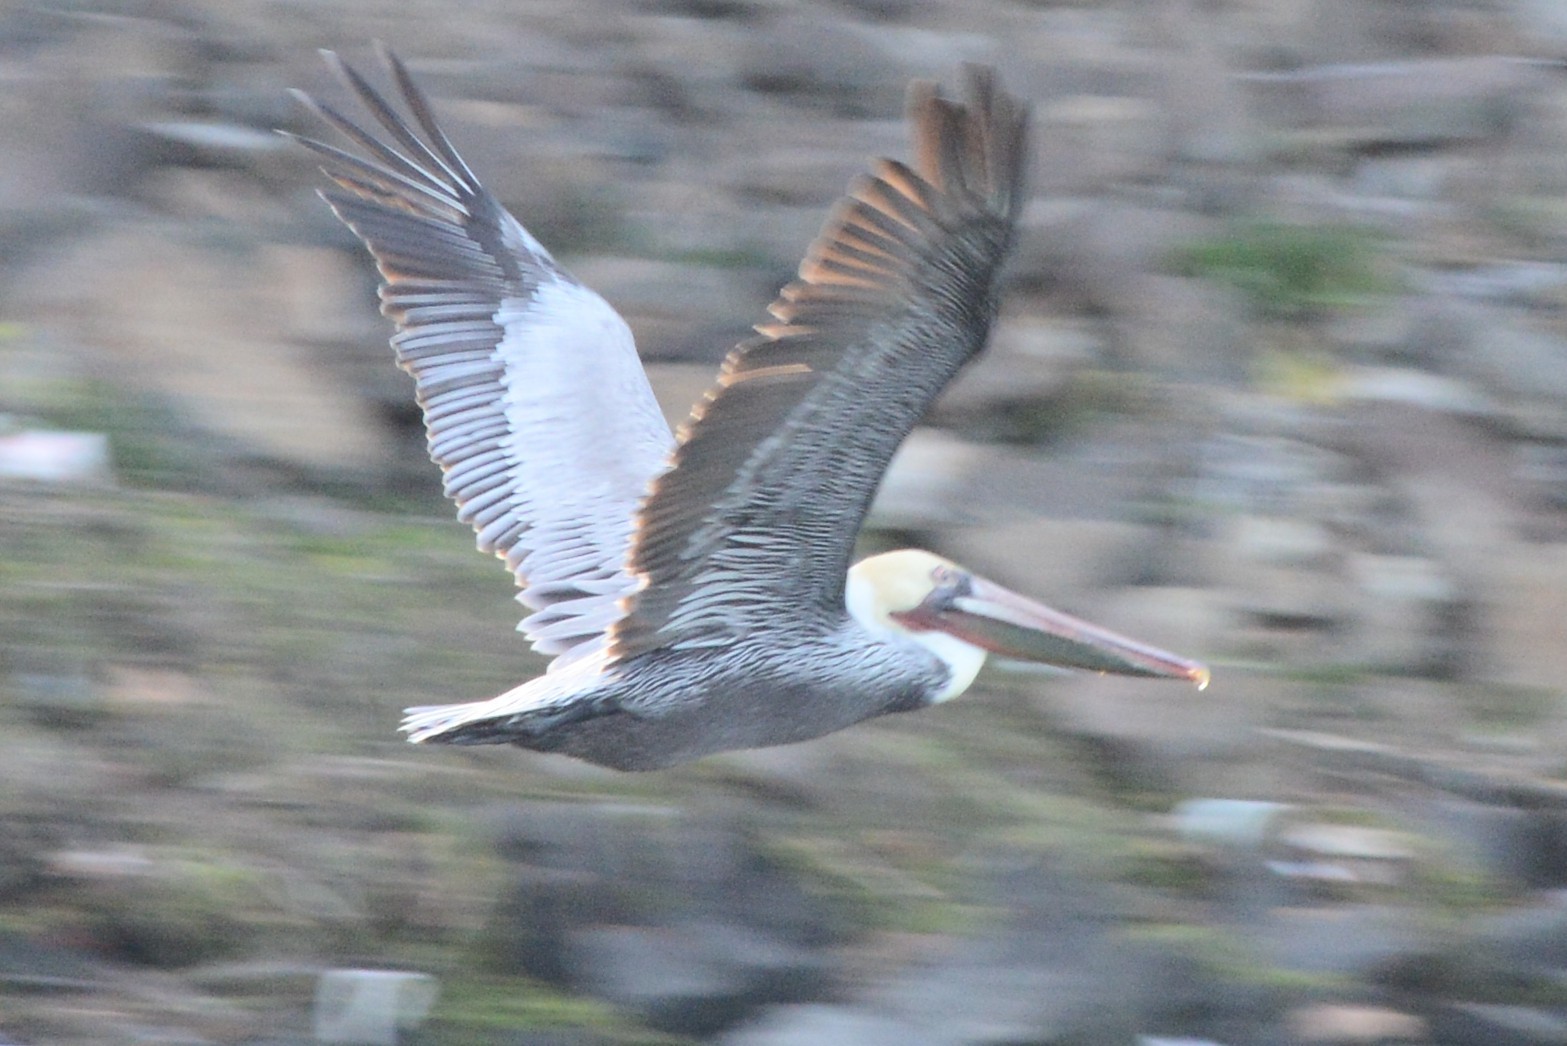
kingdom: Animalia
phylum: Chordata
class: Aves
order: Pelecaniformes
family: Pelecanidae
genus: Pelecanus
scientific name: Pelecanus occidentalis
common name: Brown pelican
